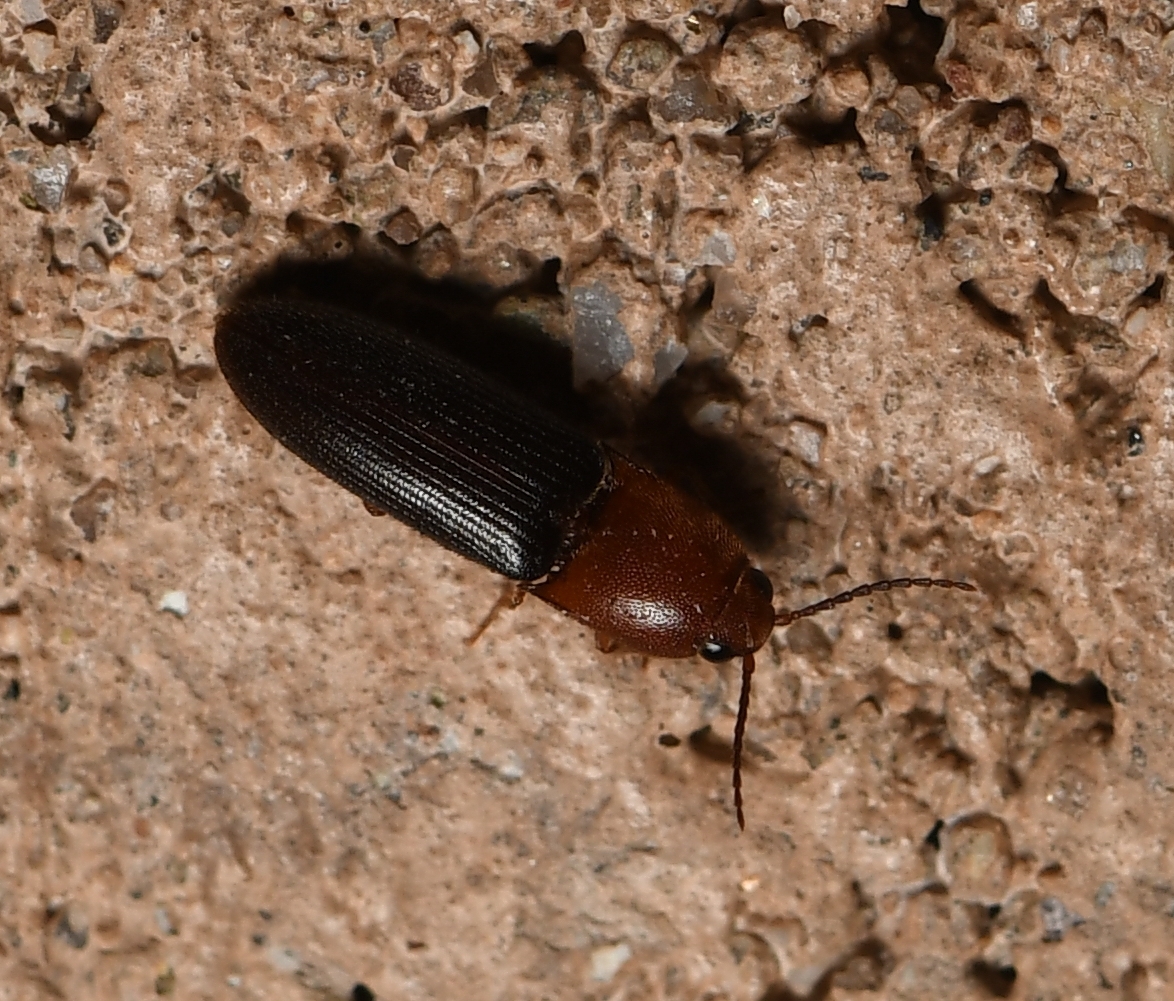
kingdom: Animalia
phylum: Arthropoda
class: Insecta
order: Coleoptera
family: Elateridae
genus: Anchastus
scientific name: Anchastus
